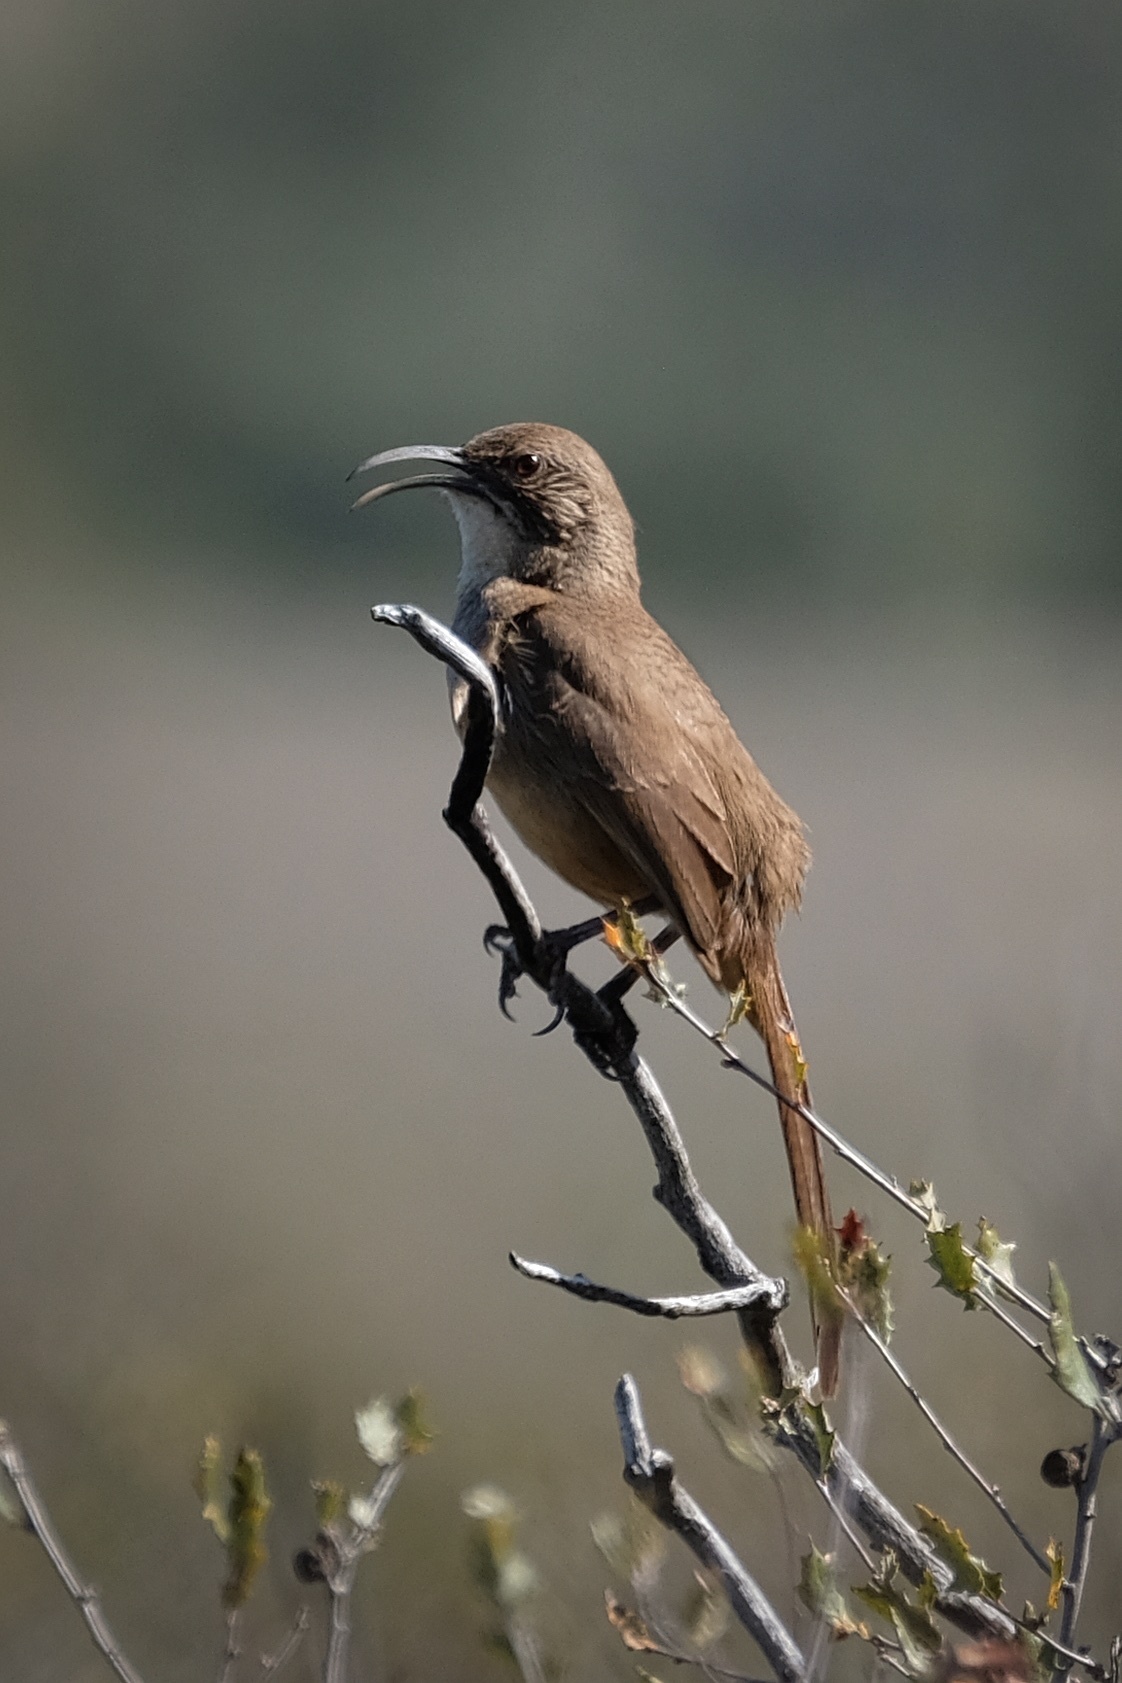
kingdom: Animalia
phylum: Chordata
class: Aves
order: Passeriformes
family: Mimidae
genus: Toxostoma
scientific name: Toxostoma redivivum
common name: California thrasher
